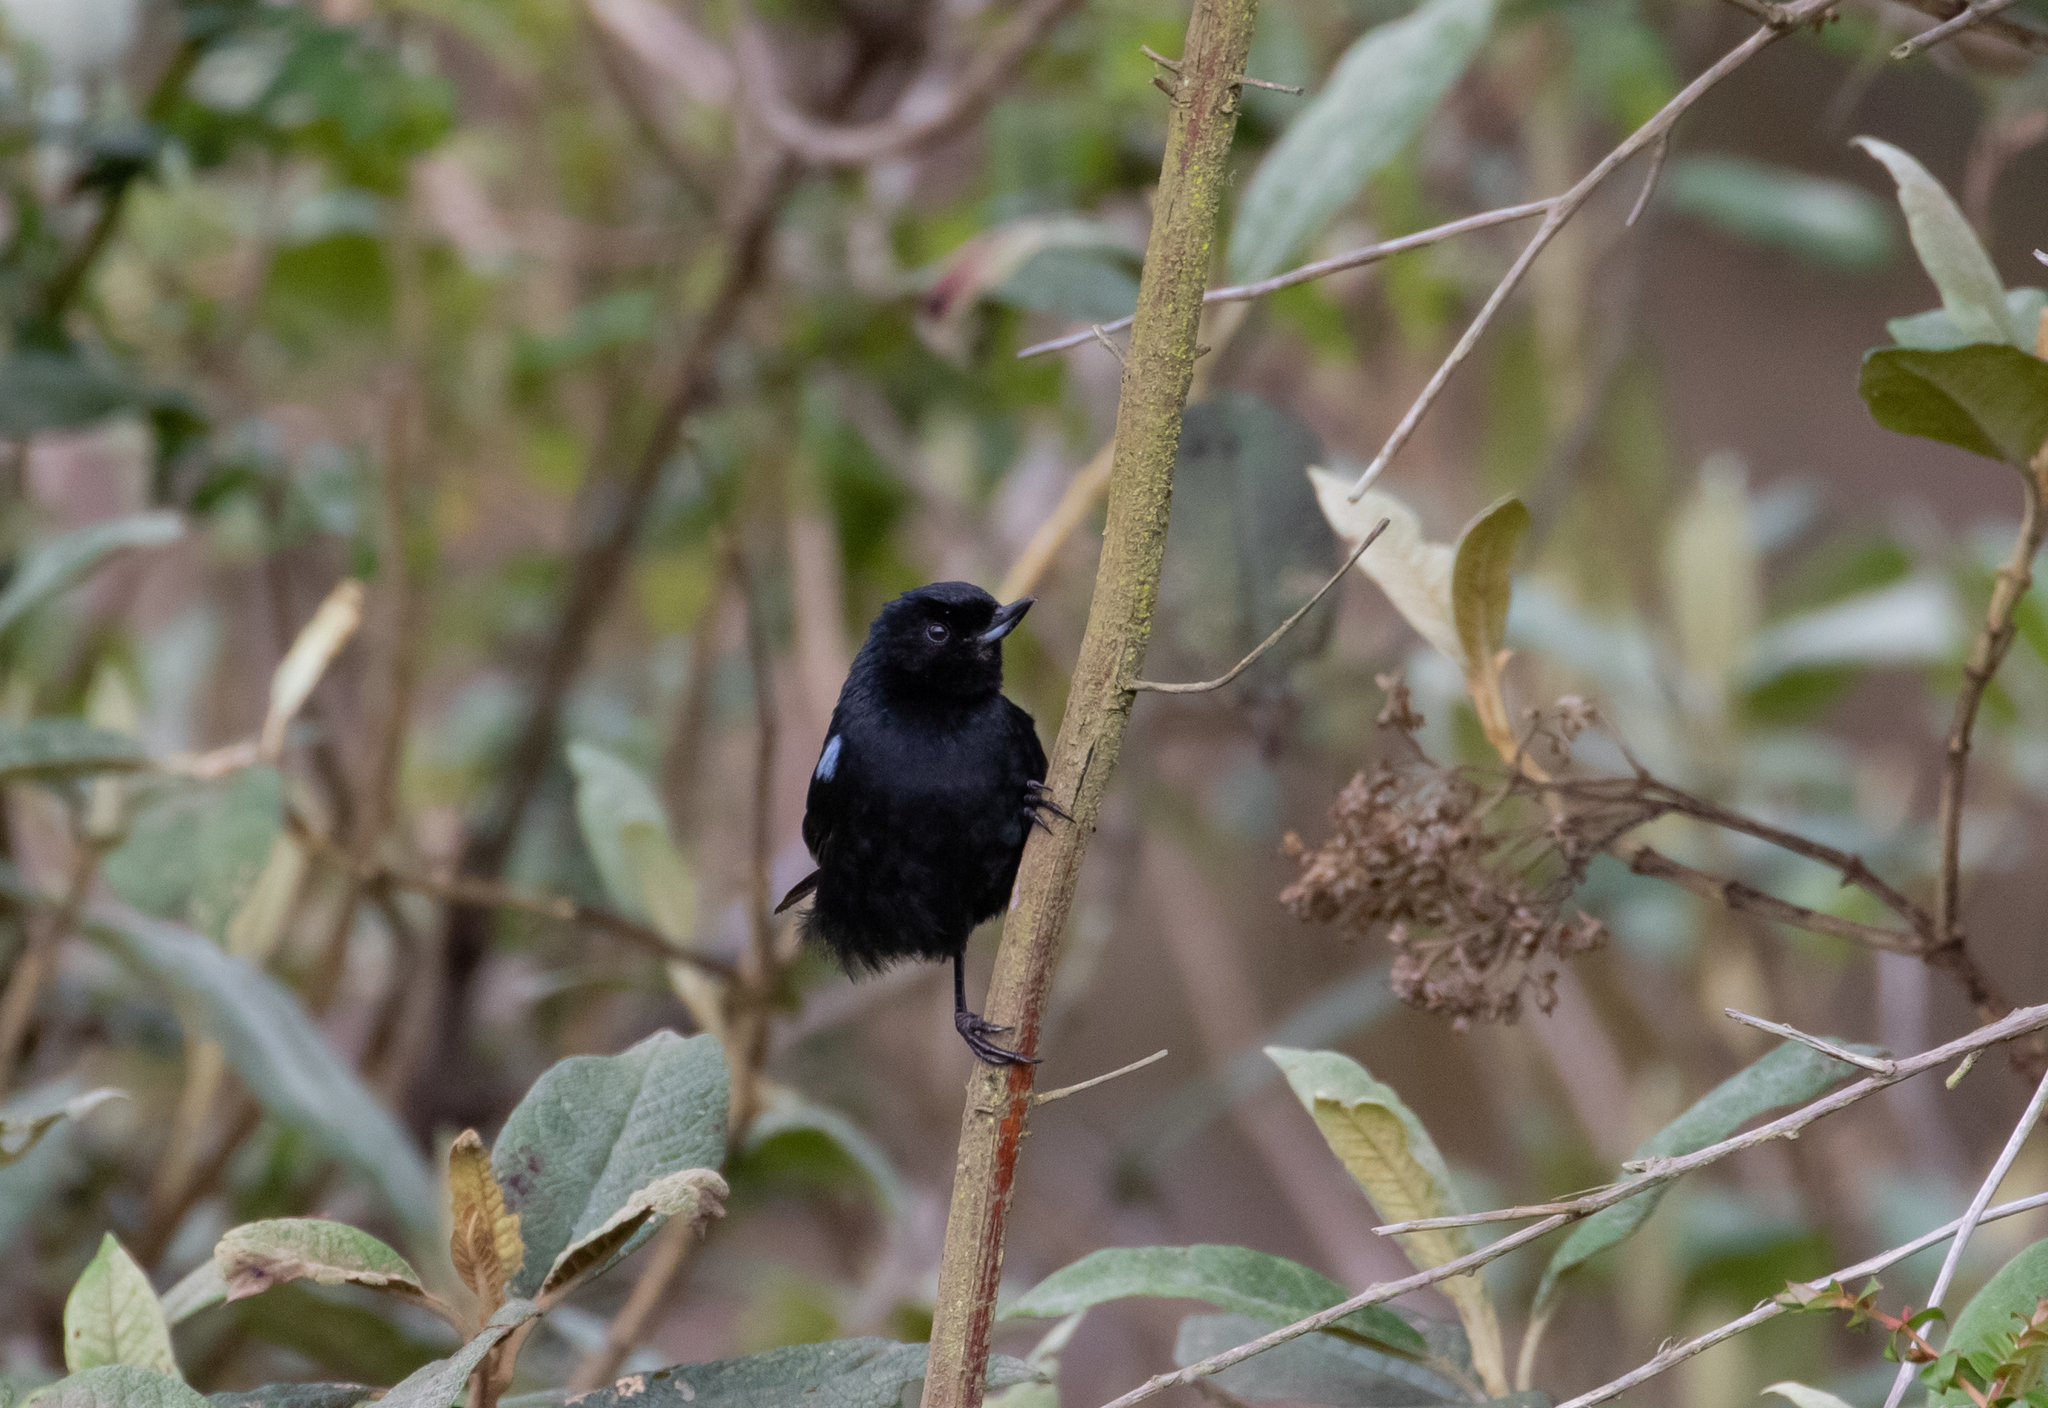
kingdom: Animalia
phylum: Chordata
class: Aves
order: Passeriformes
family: Thraupidae
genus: Diglossa
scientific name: Diglossa lafresnayii
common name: Glossy flowerpiercer
